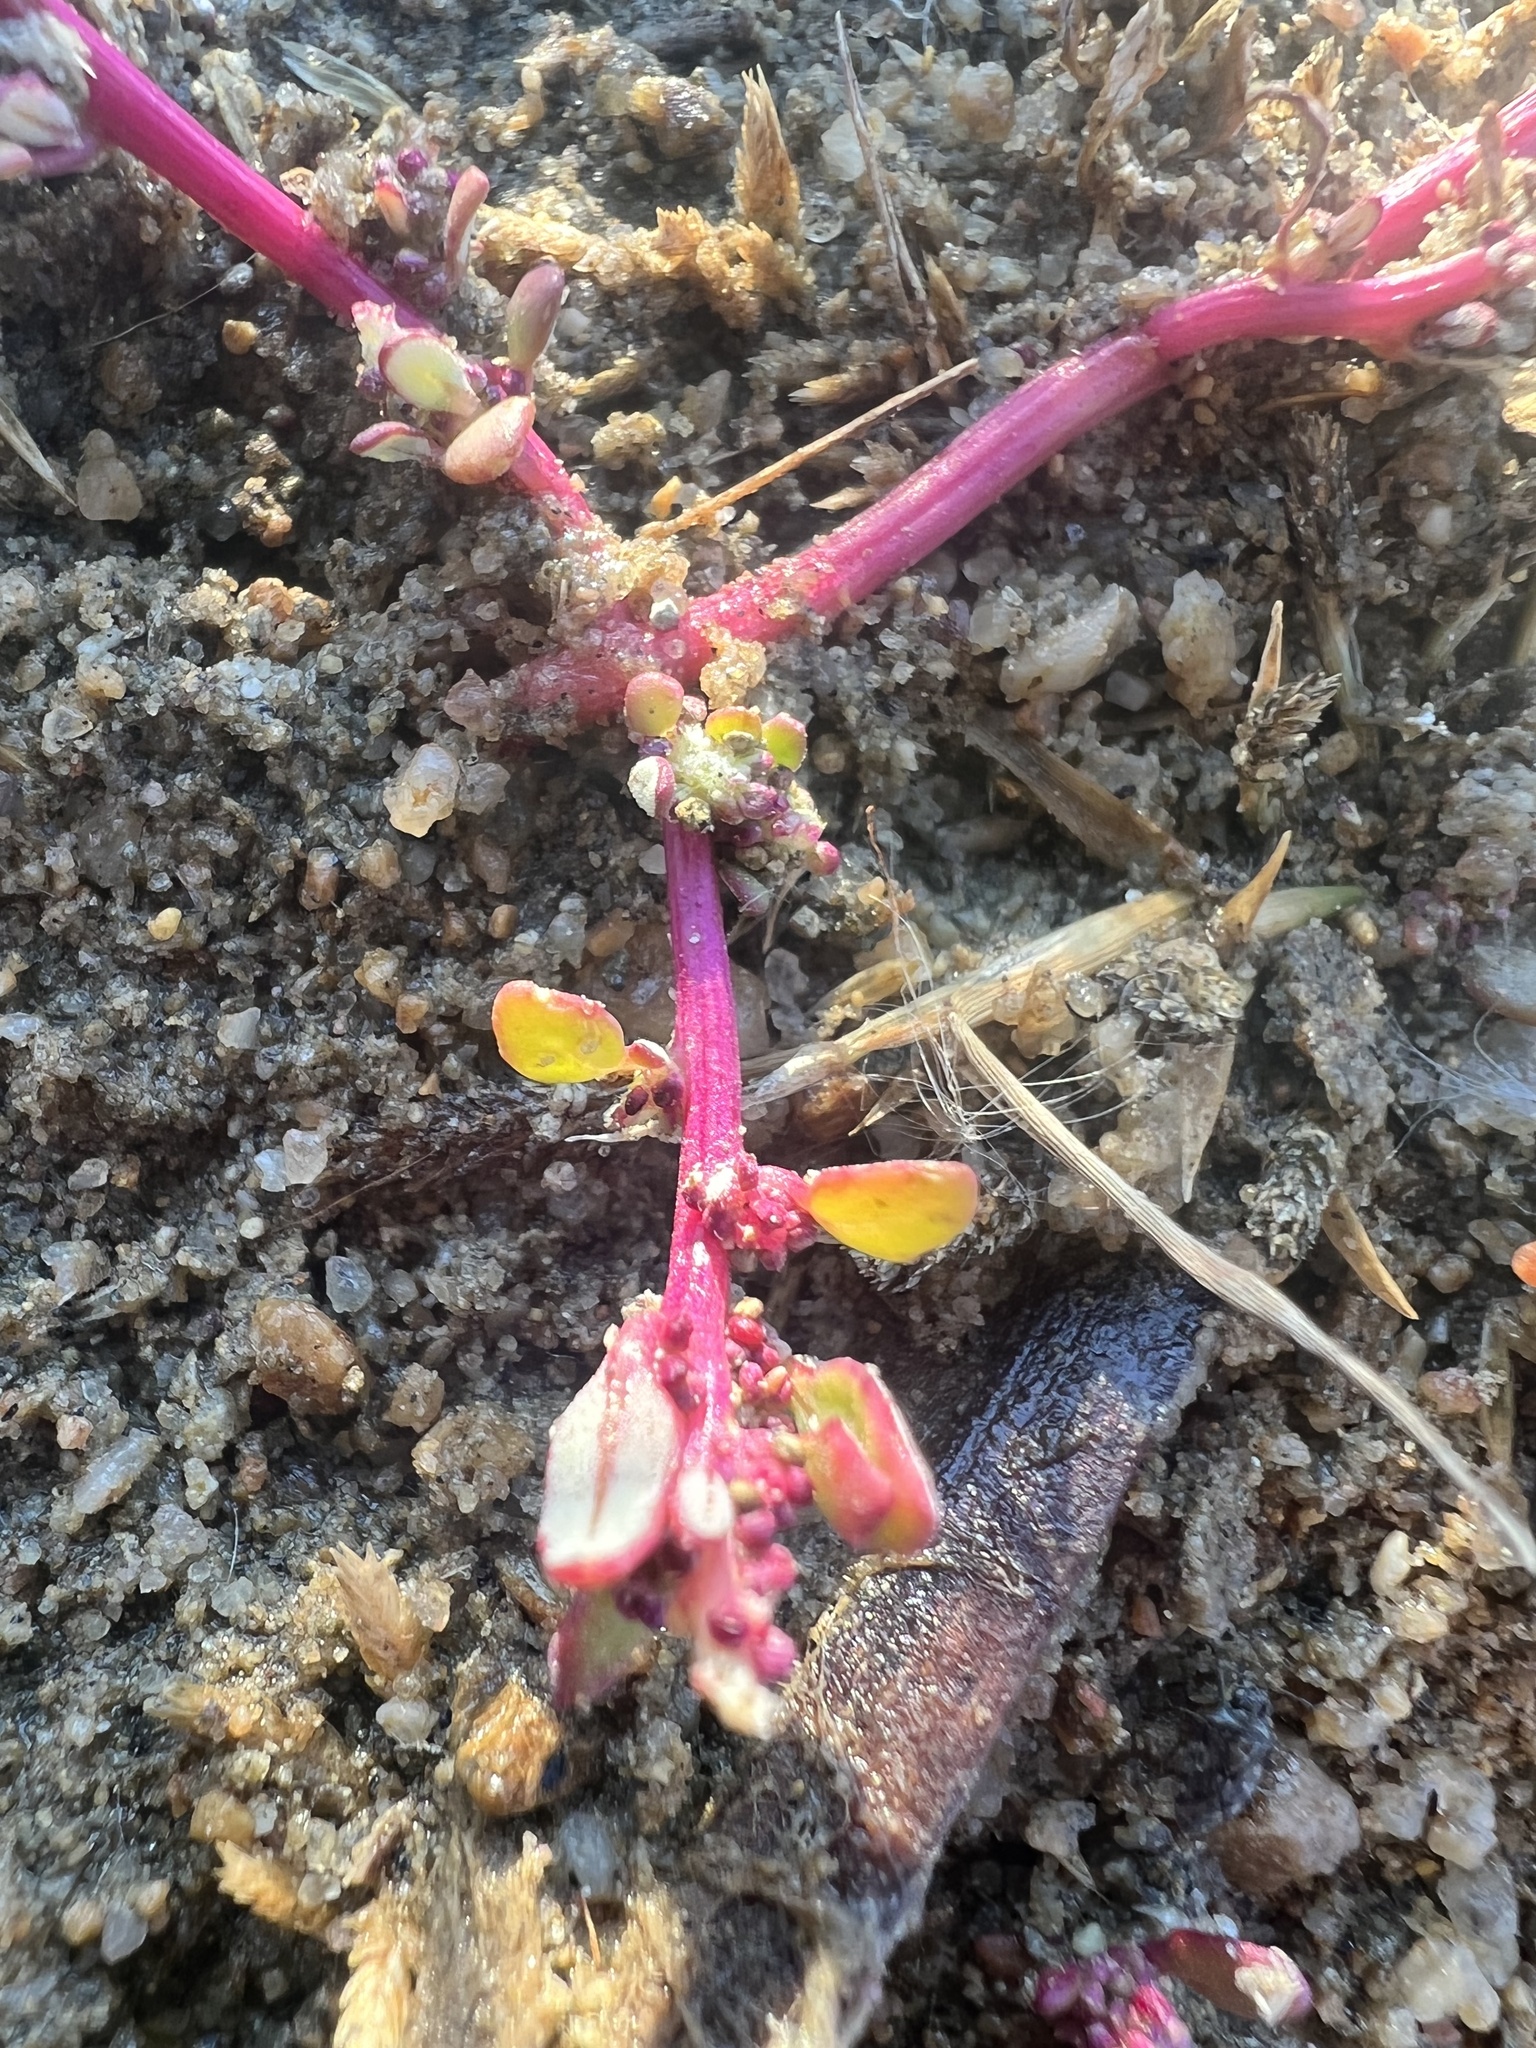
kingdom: Plantae
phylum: Tracheophyta
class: Magnoliopsida
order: Caryophyllales
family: Amaranthaceae
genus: Oxybasis
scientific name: Oxybasis glauca
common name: Glaucous goosefoot
